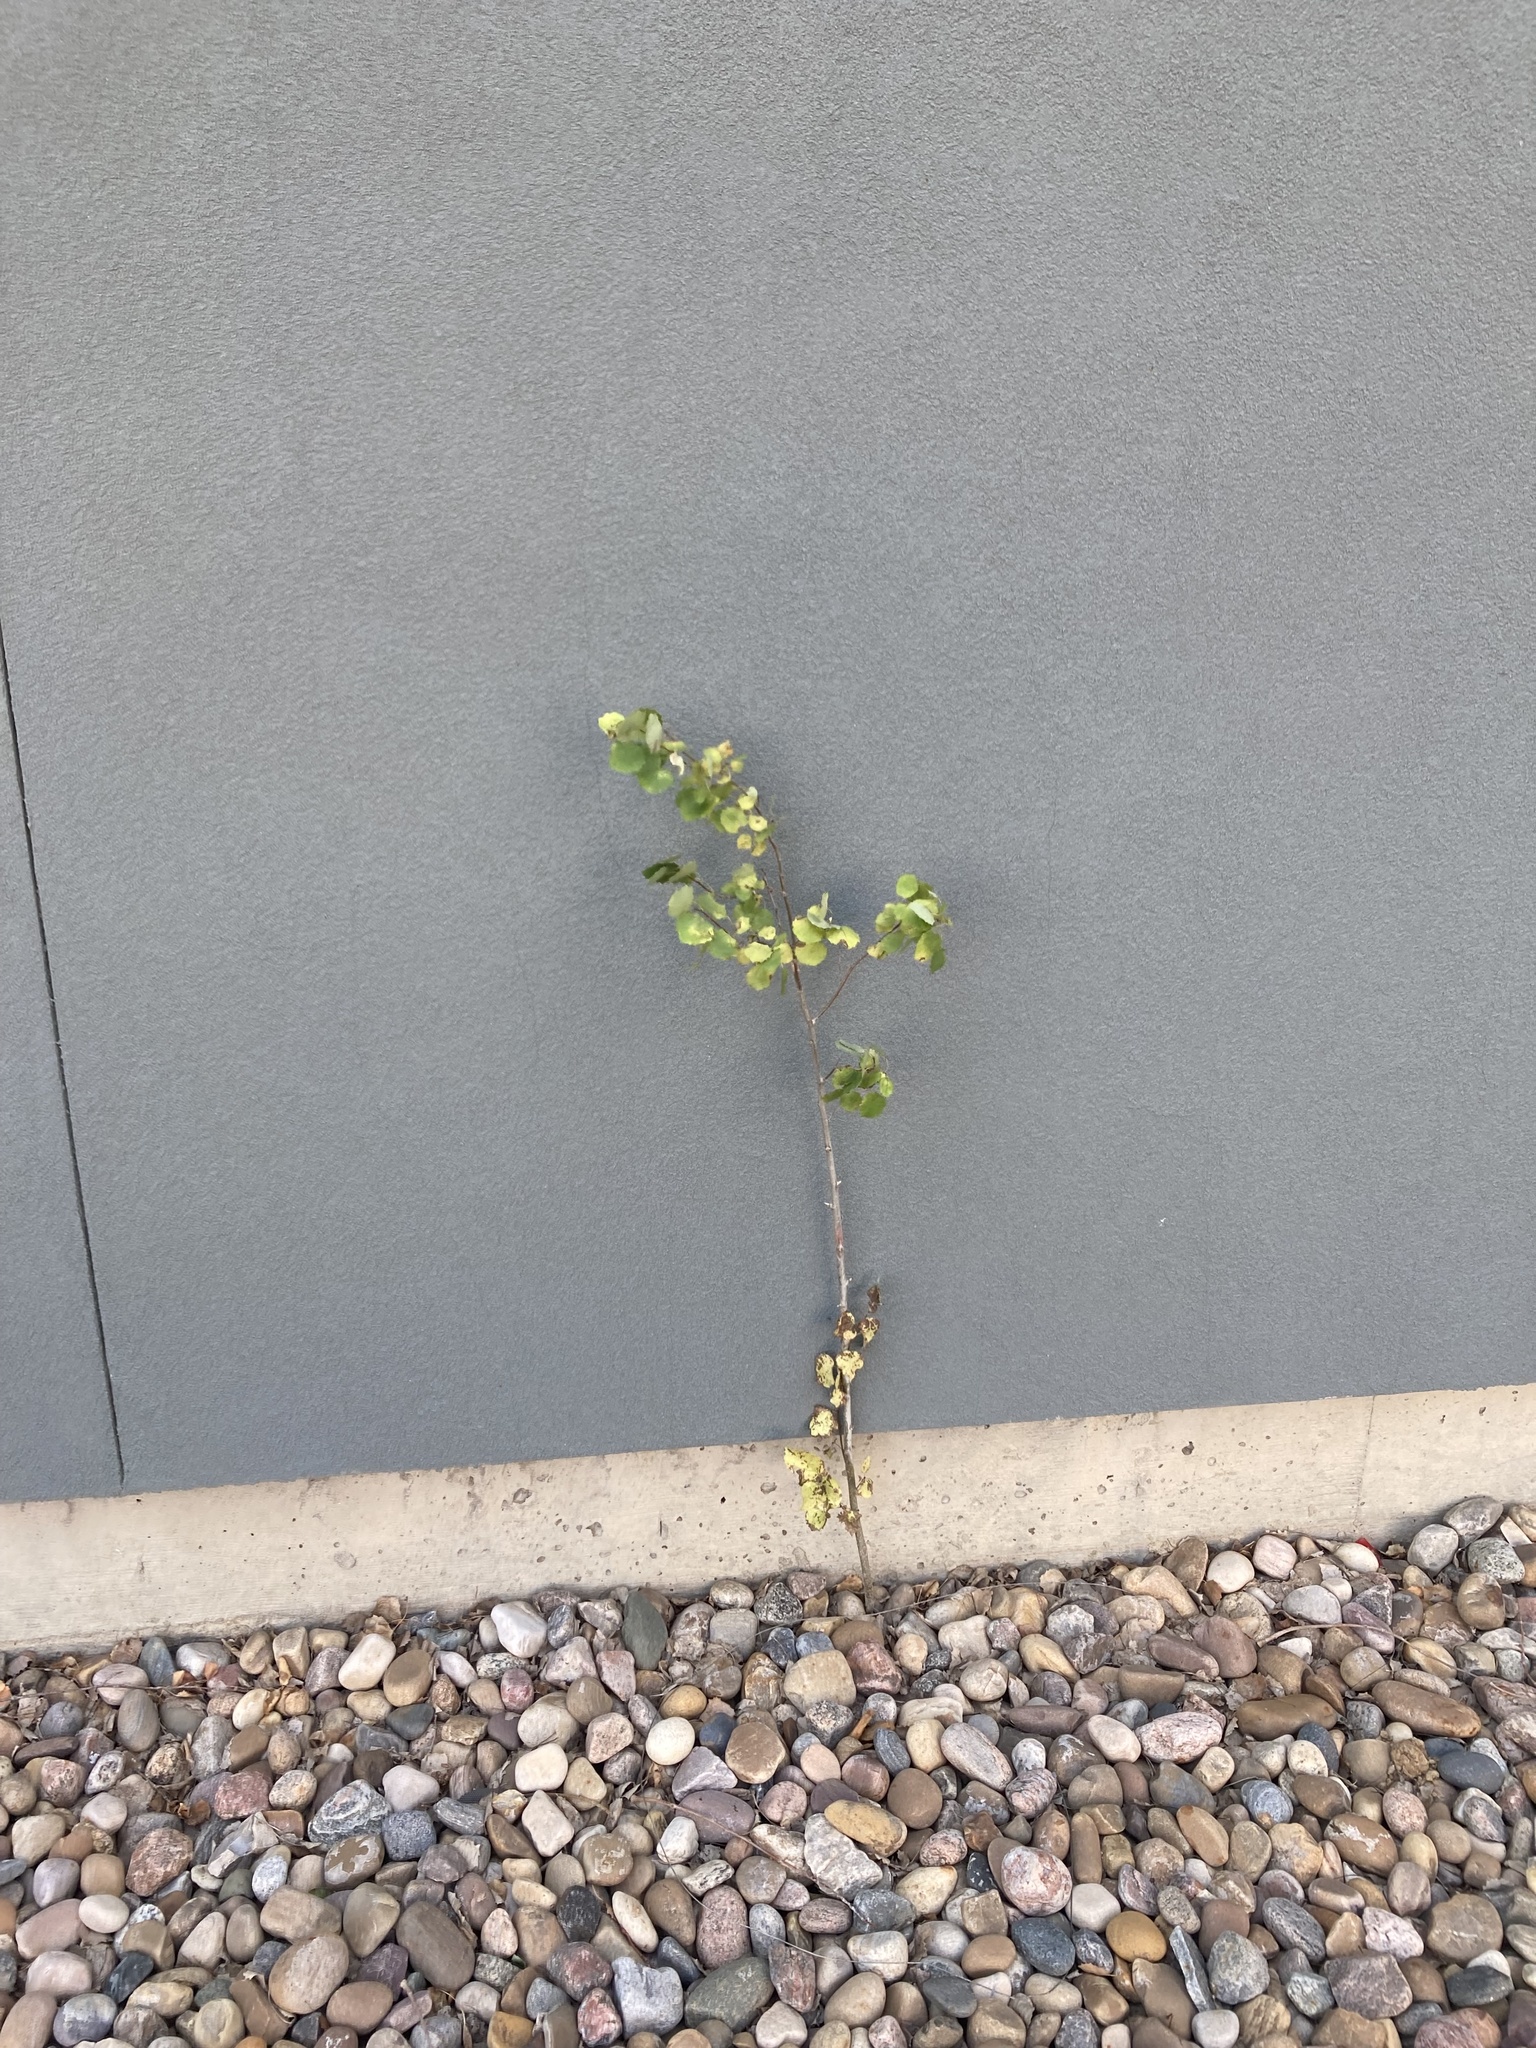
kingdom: Plantae
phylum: Tracheophyta
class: Magnoliopsida
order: Malpighiales
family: Salicaceae
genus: Populus
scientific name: Populus tremula
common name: European aspen
